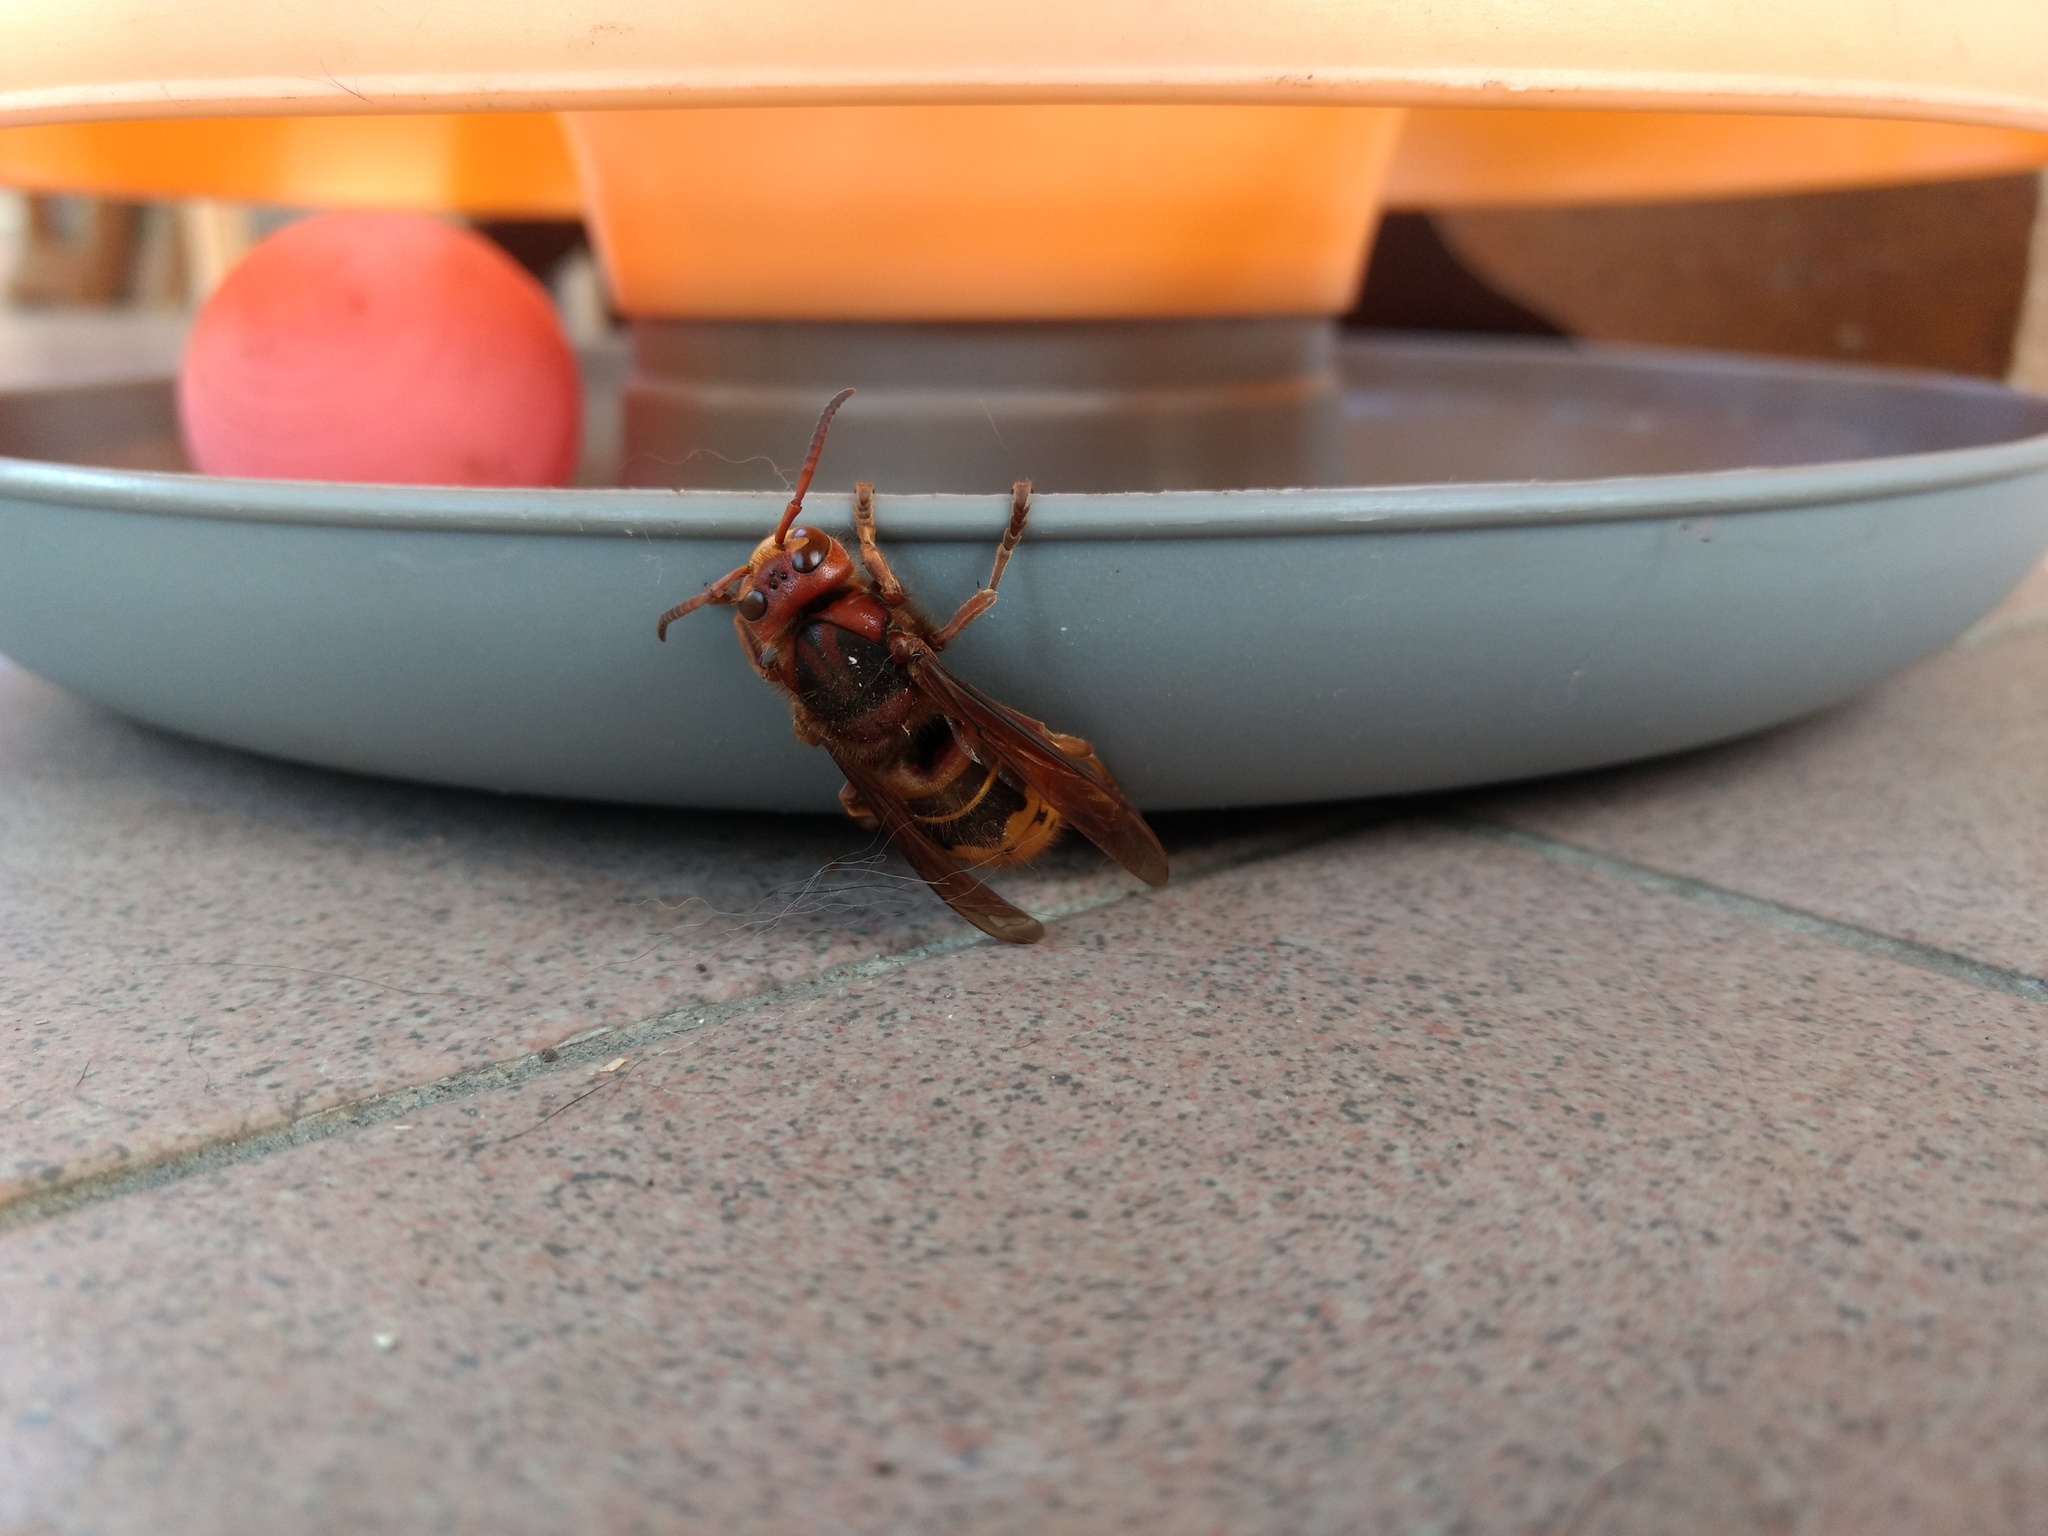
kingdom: Animalia
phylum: Arthropoda
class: Insecta
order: Hymenoptera
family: Vespidae
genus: Vespa
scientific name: Vespa crabro
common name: Hornet
